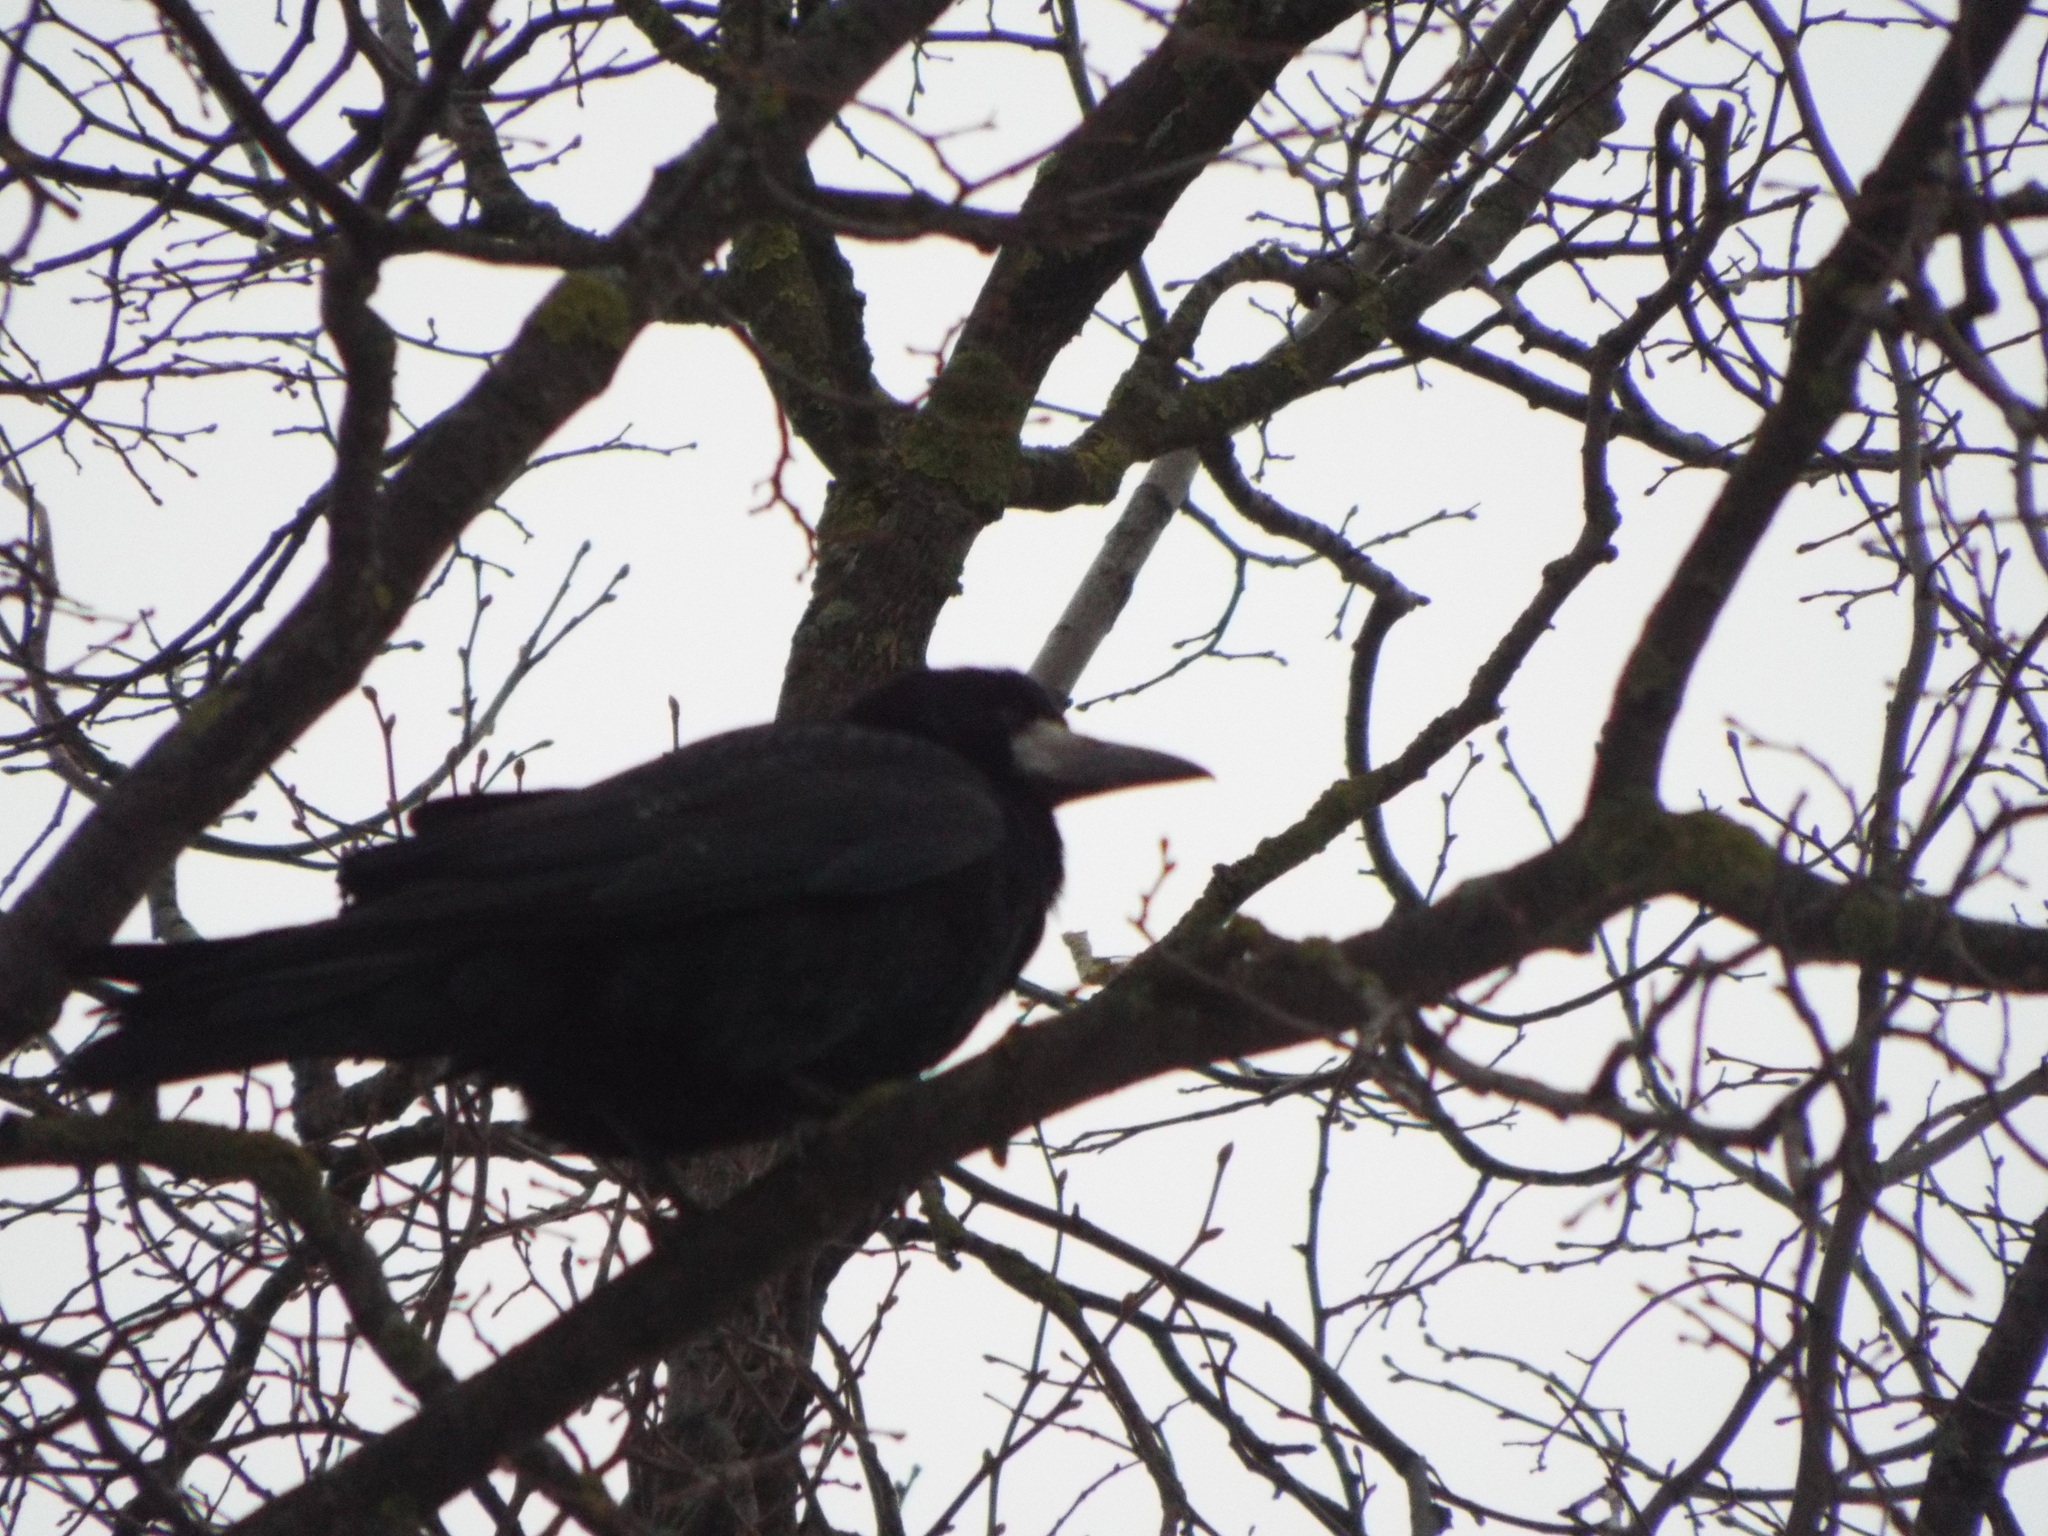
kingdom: Animalia
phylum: Chordata
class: Aves
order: Passeriformes
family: Corvidae
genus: Corvus
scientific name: Corvus frugilegus
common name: Rook
